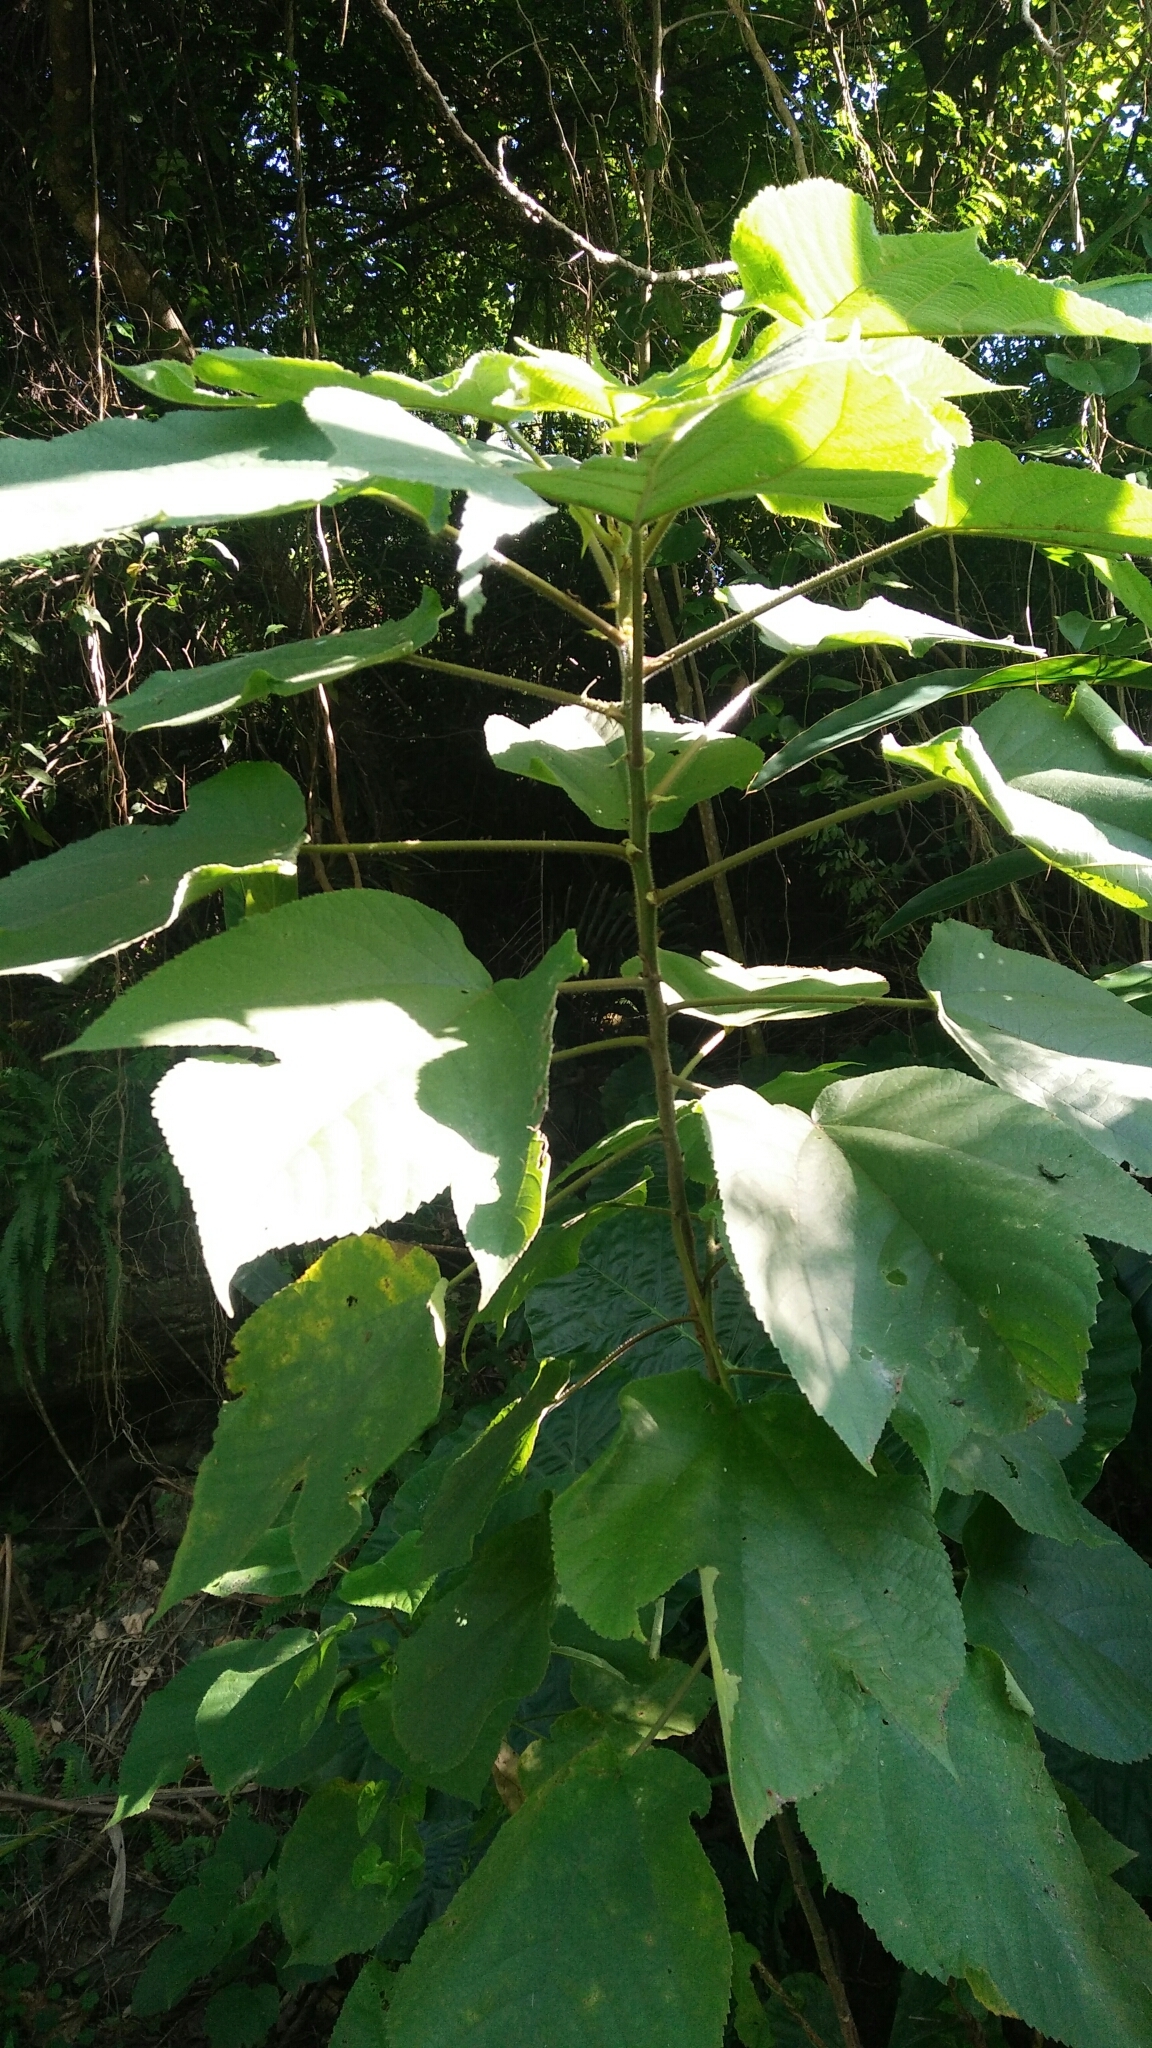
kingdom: Plantae
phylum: Tracheophyta
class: Magnoliopsida
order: Rosales
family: Moraceae
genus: Broussonetia
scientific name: Broussonetia papyrifera
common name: Paper mulberry
